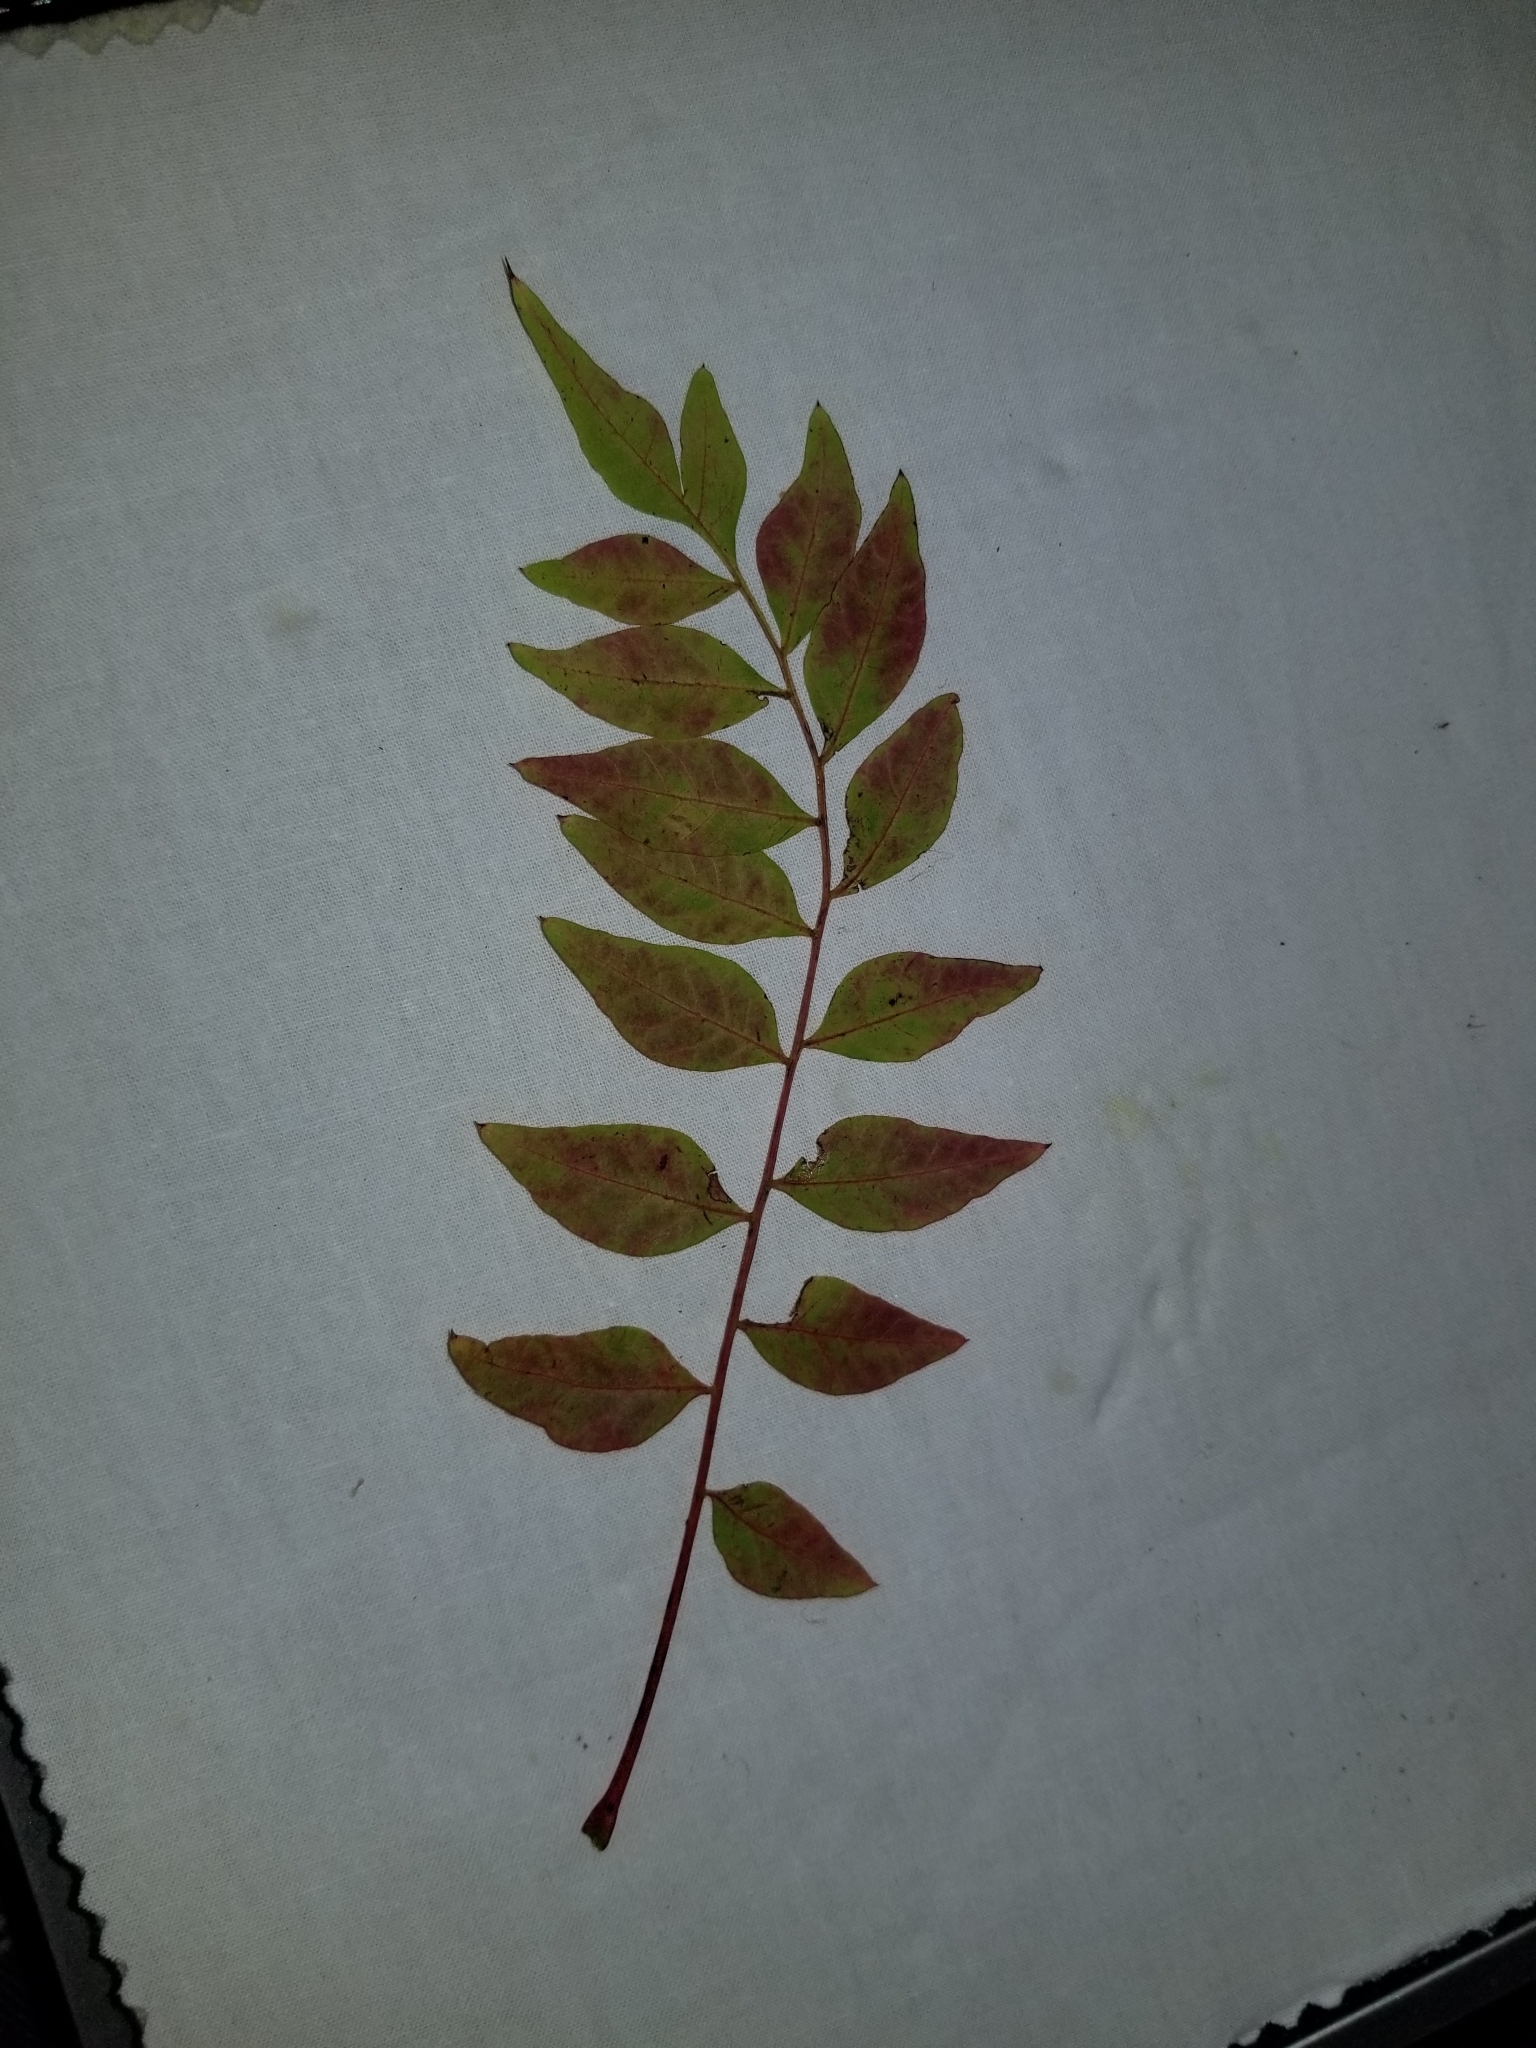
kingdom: Plantae
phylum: Tracheophyta
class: Magnoliopsida
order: Sapindales
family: Anacardiaceae
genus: Pistacia
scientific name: Pistacia chinensis
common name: Chinese pistache
